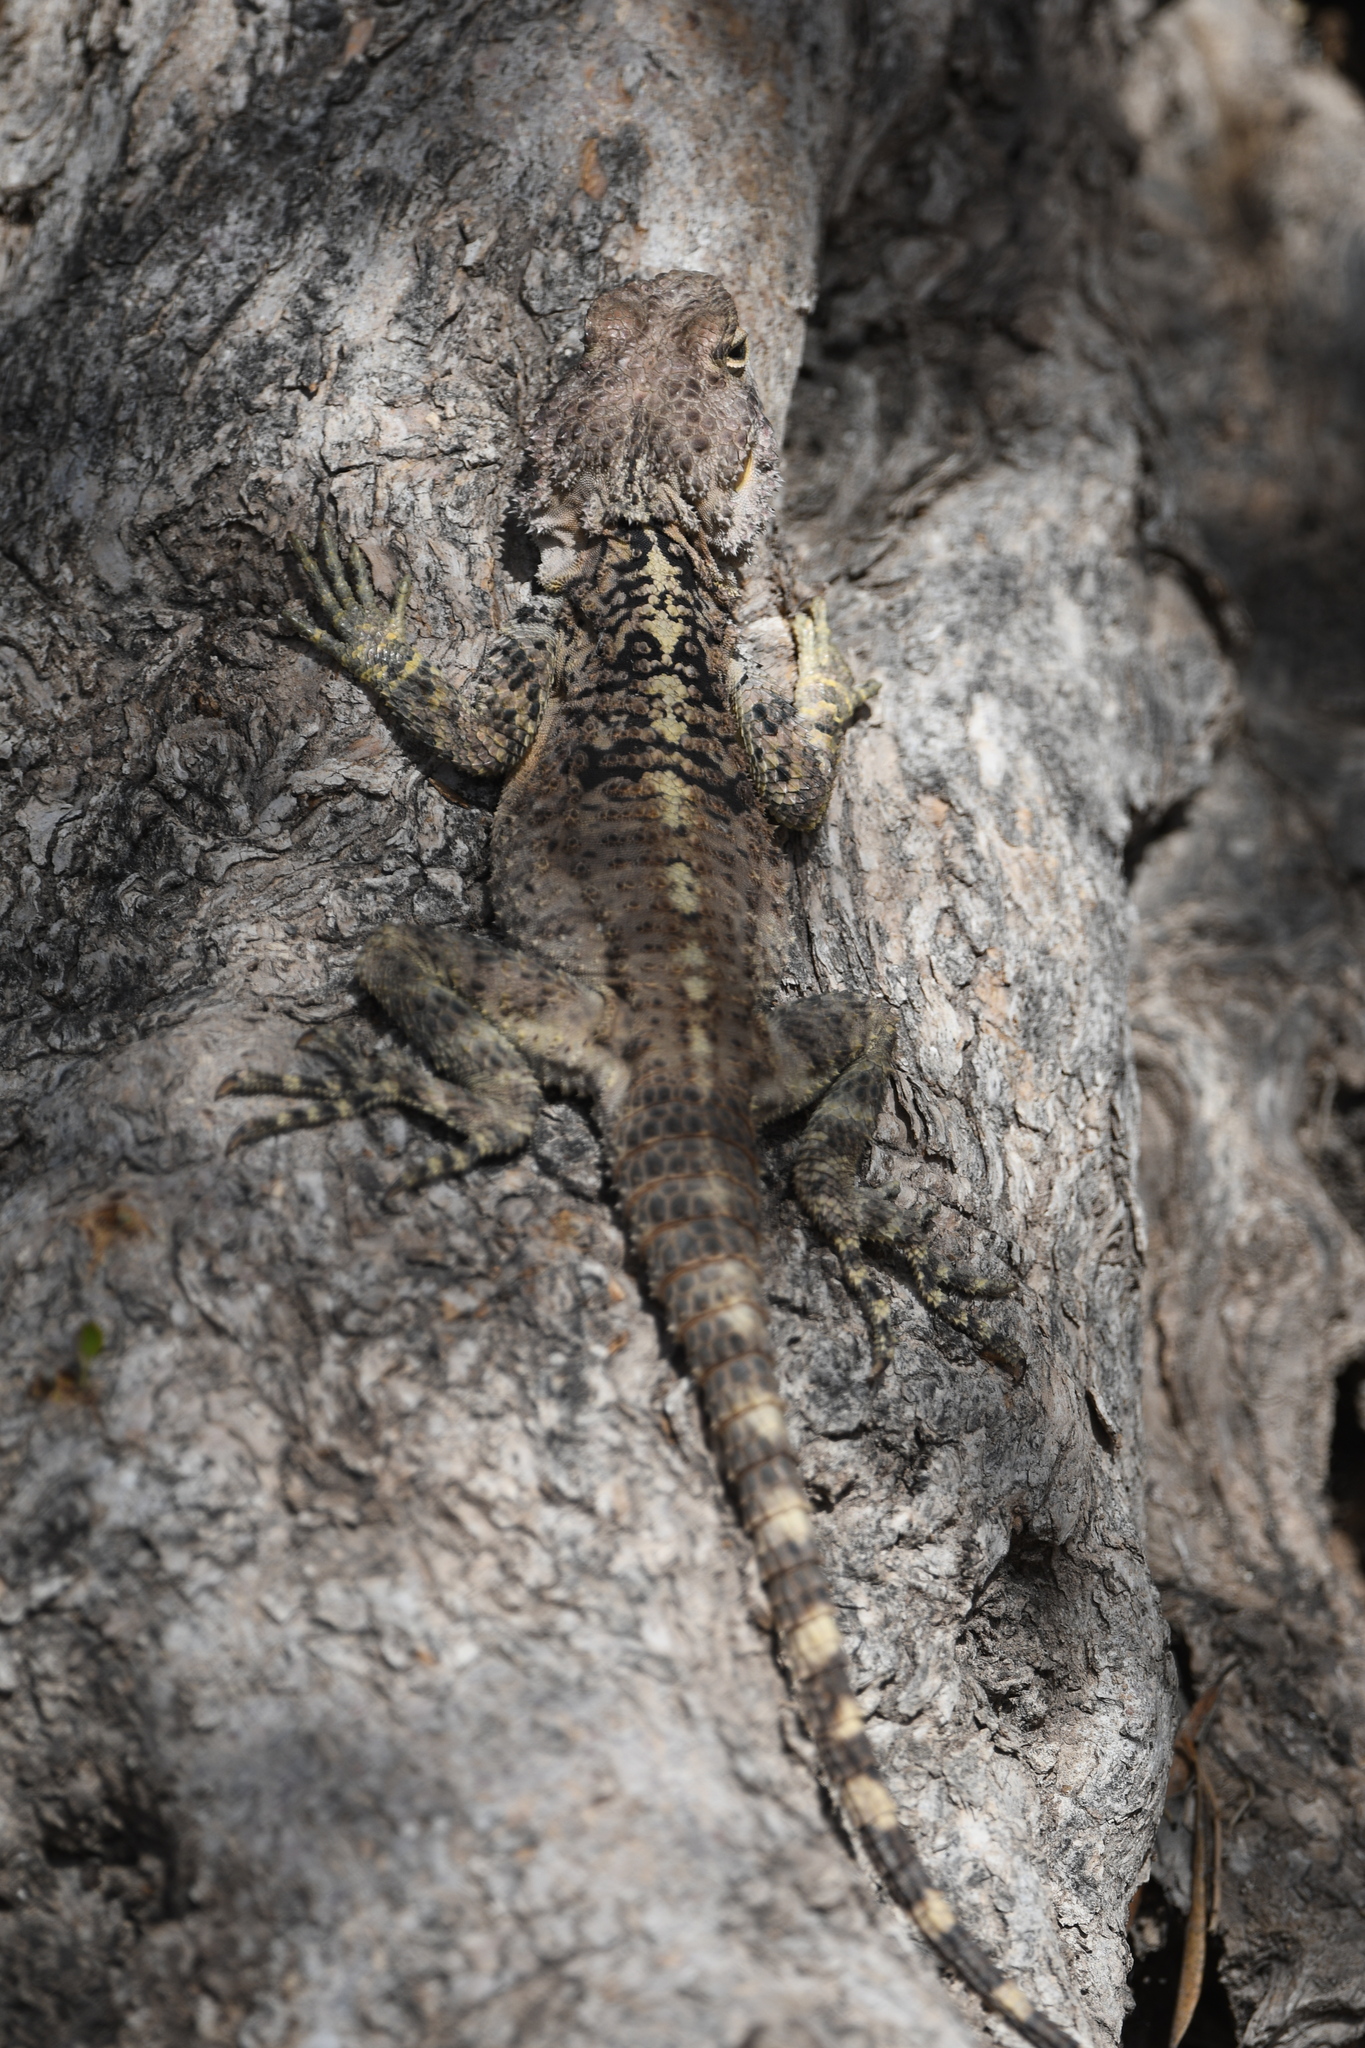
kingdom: Animalia
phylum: Chordata
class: Squamata
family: Agamidae
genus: Laudakia
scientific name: Laudakia
